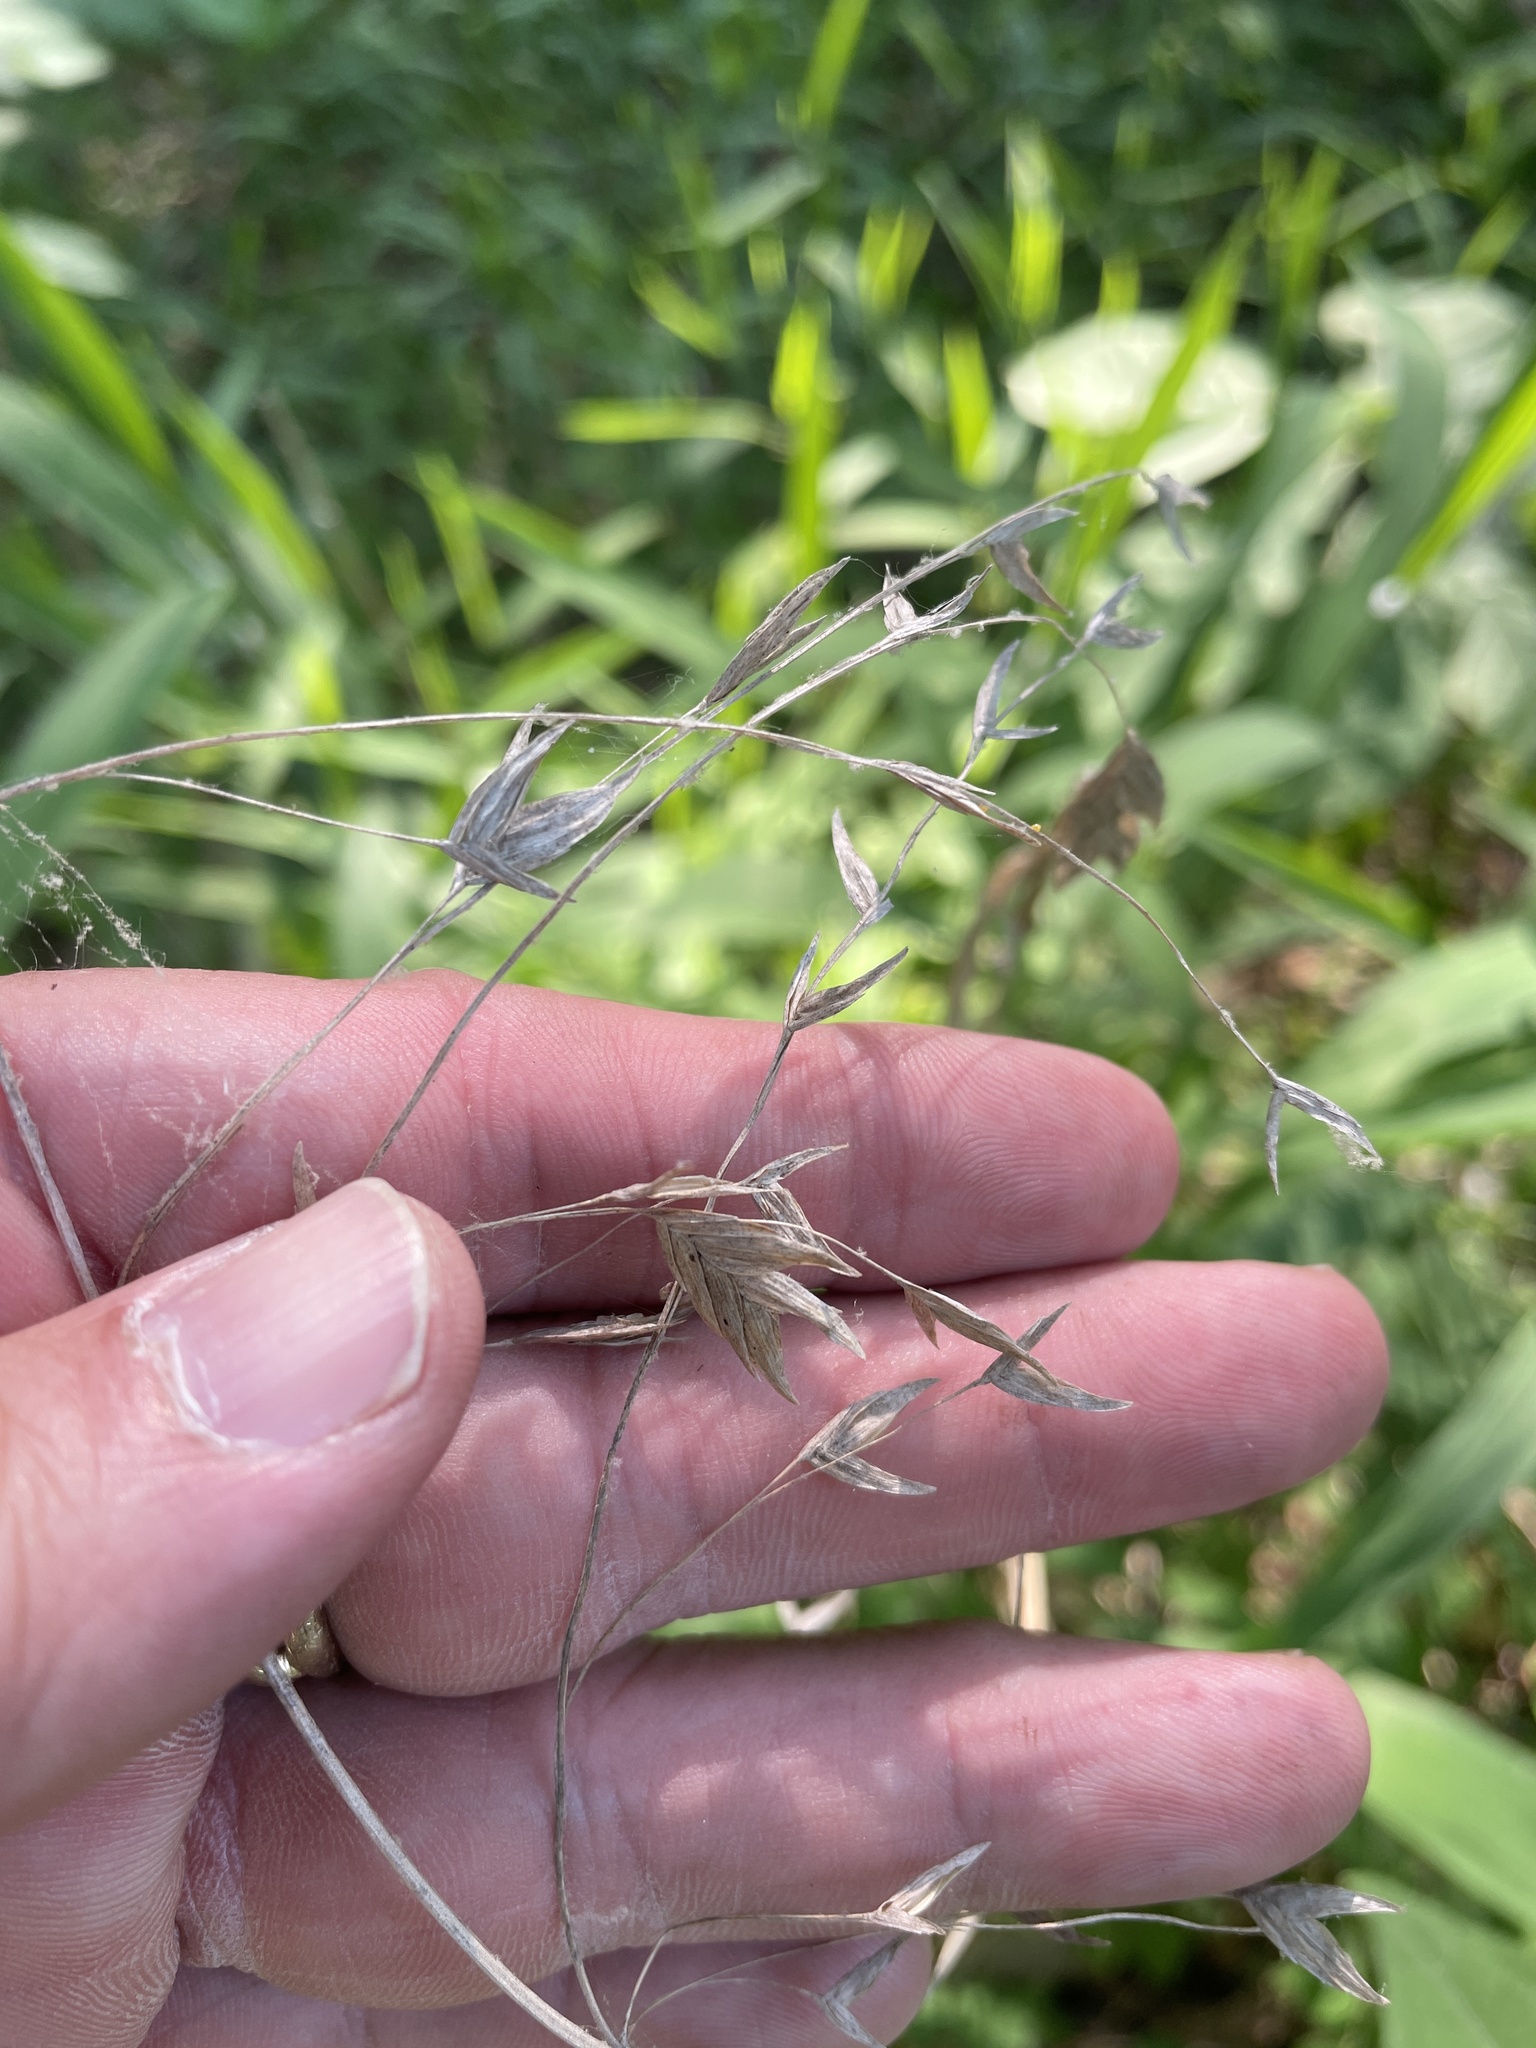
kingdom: Plantae
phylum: Tracheophyta
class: Liliopsida
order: Poales
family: Poaceae
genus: Chasmanthium
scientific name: Chasmanthium latifolium
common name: Broad-leaved chasmanthium
